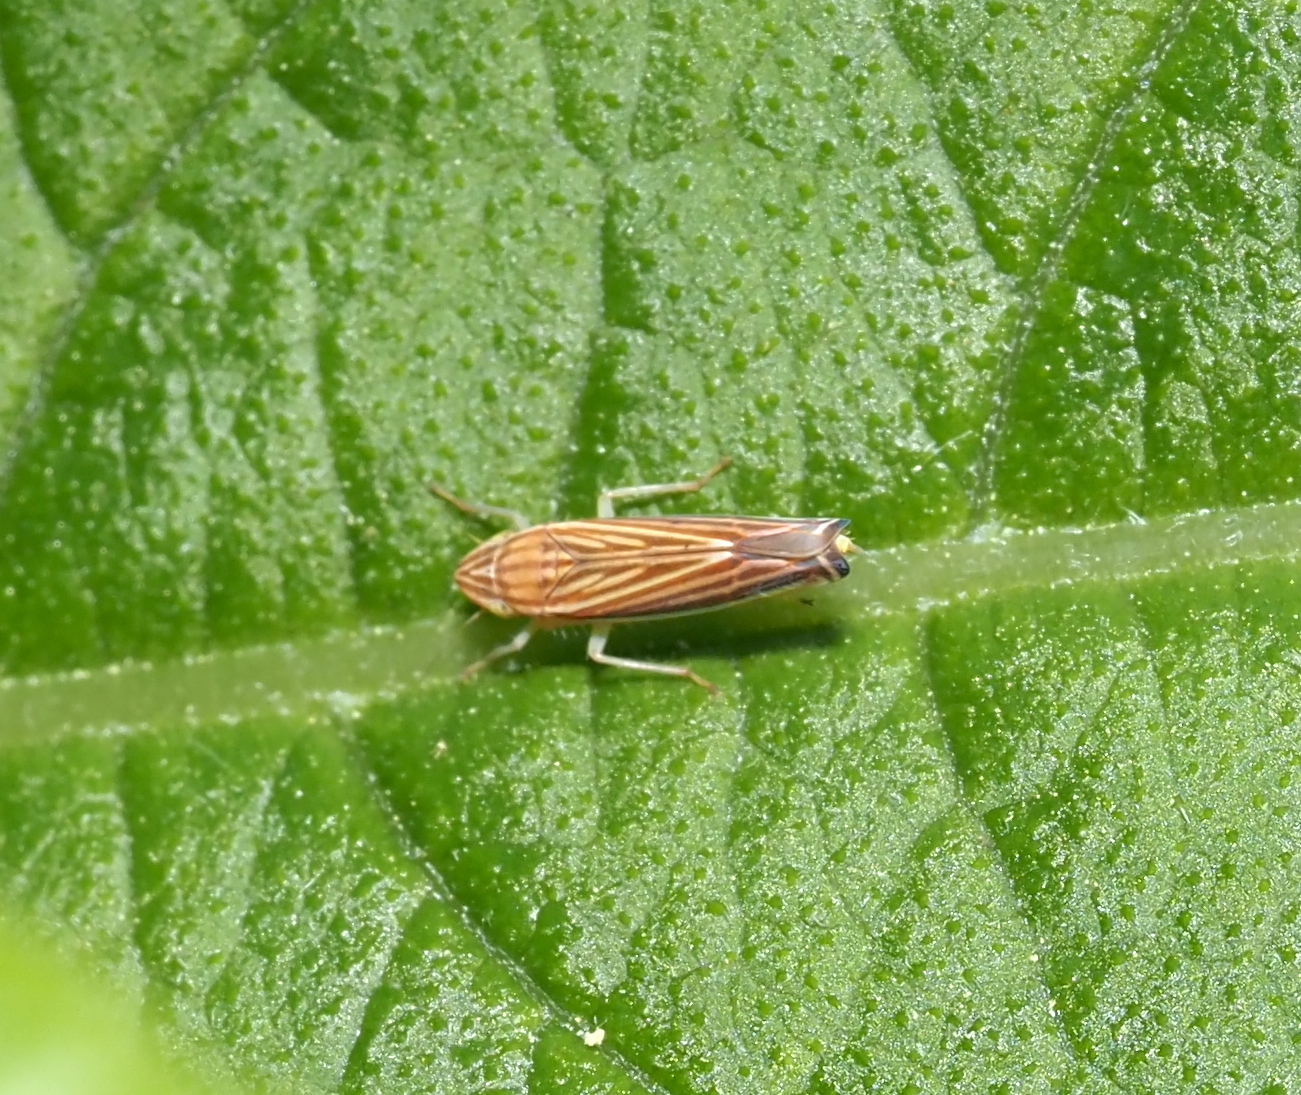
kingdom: Animalia
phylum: Arthropoda
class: Insecta
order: Hemiptera
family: Cicadellidae
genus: Sibovia
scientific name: Sibovia occatoria
